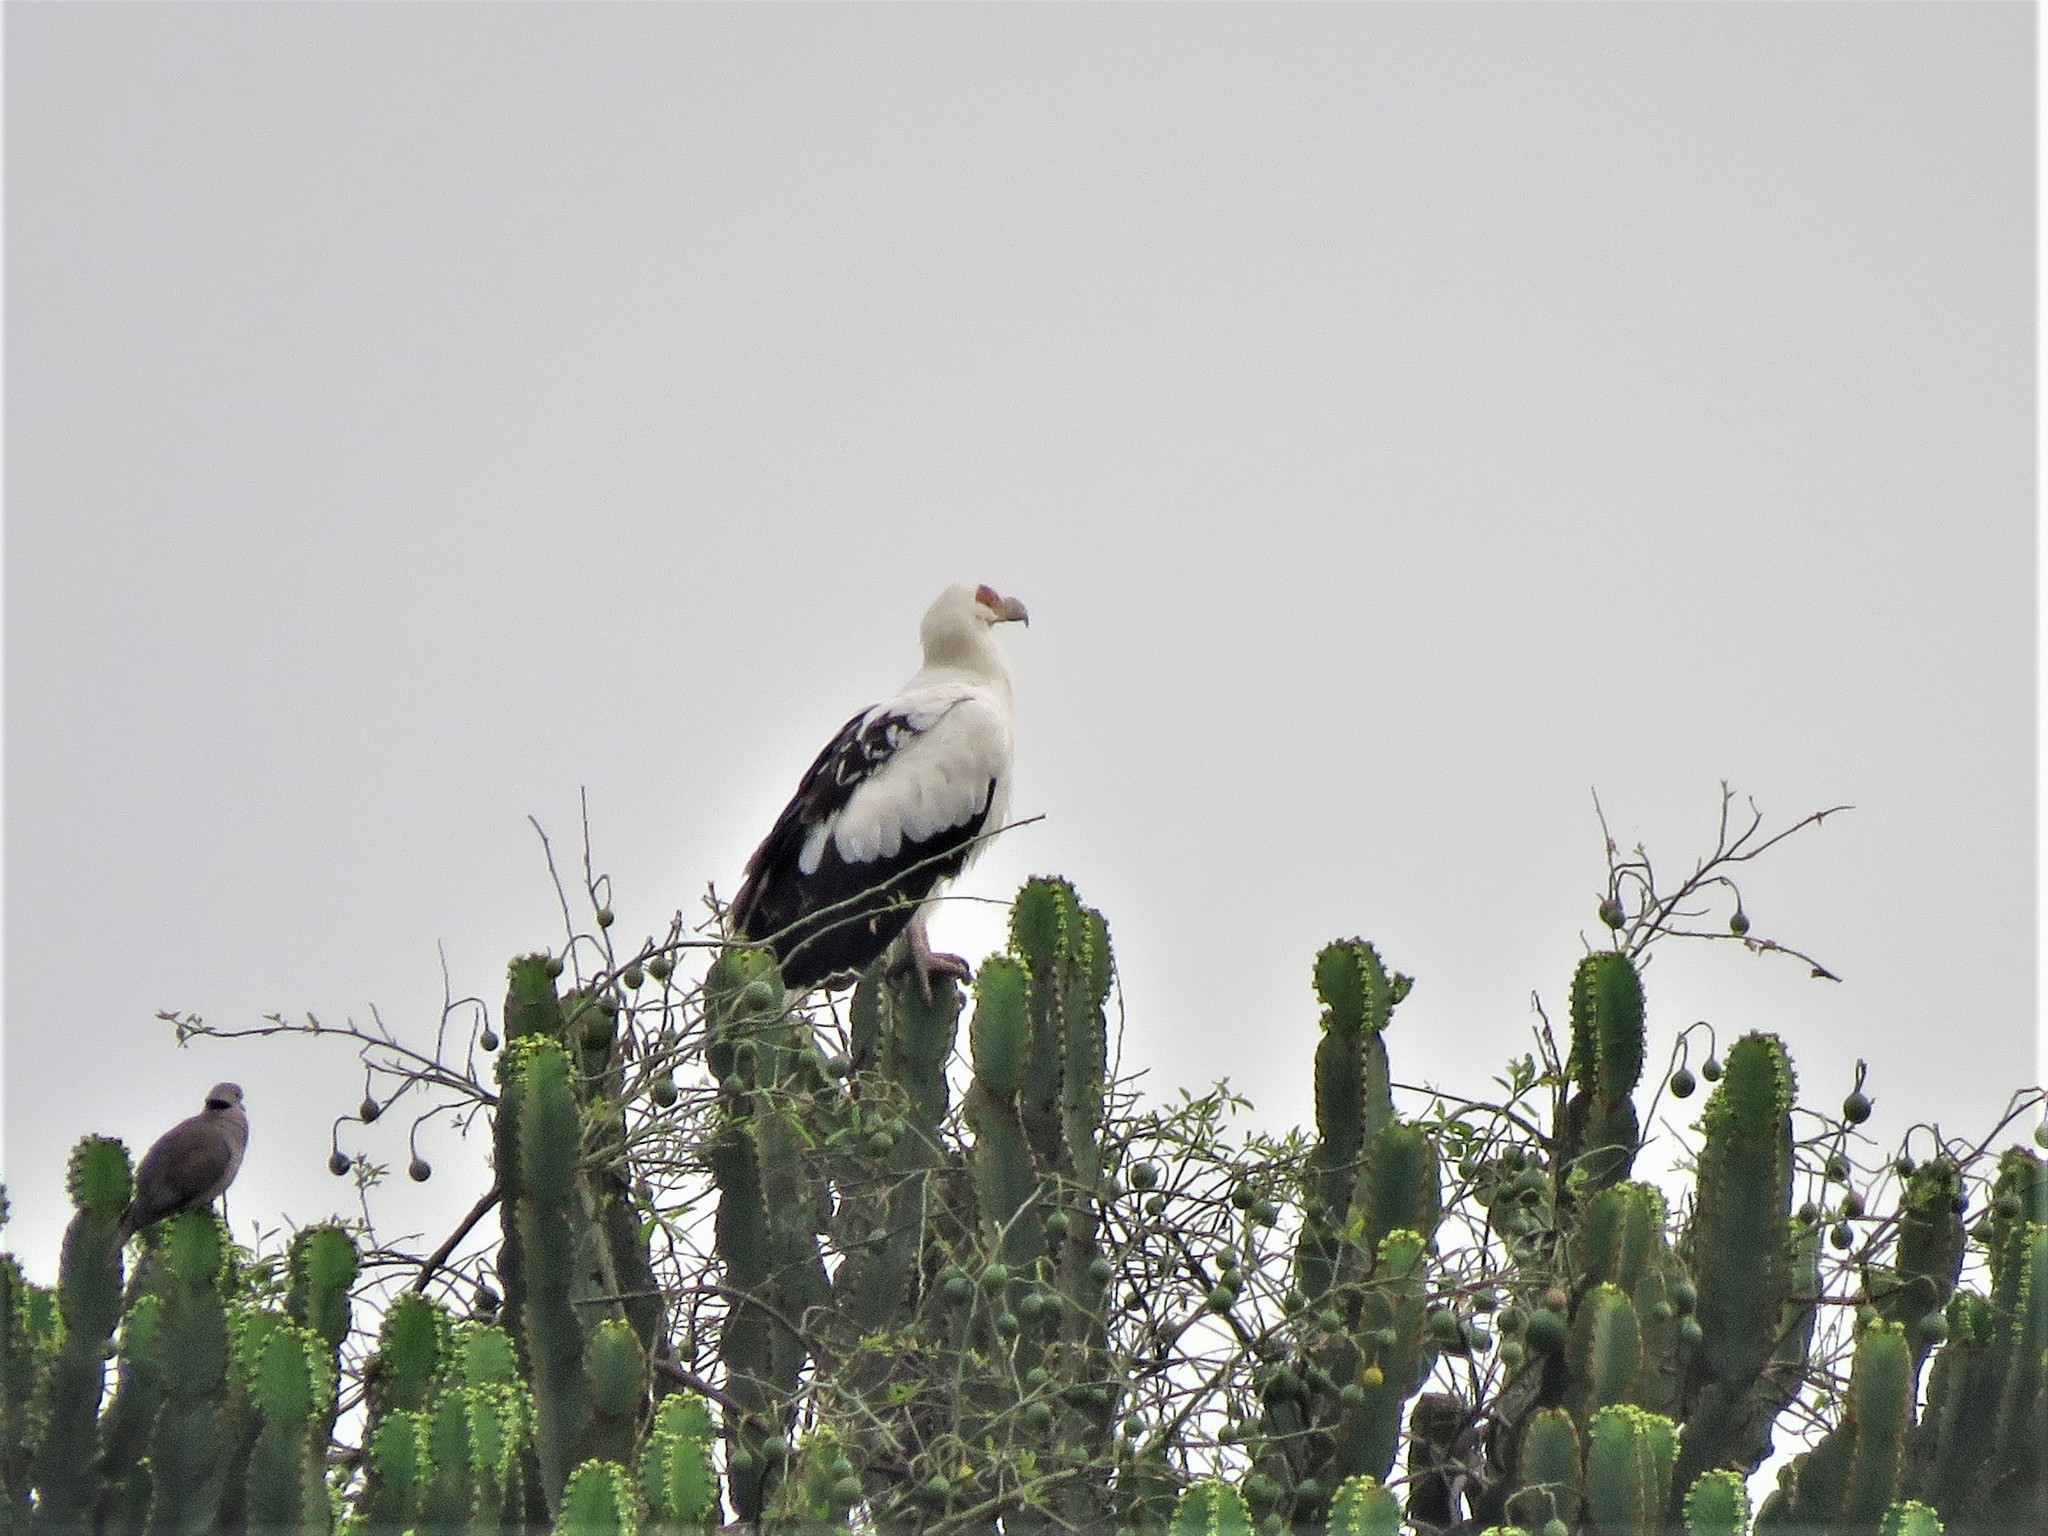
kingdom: Animalia
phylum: Chordata
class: Aves
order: Accipitriformes
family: Accipitridae
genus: Gypohierax
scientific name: Gypohierax angolensis
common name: Palm-nut vulture
